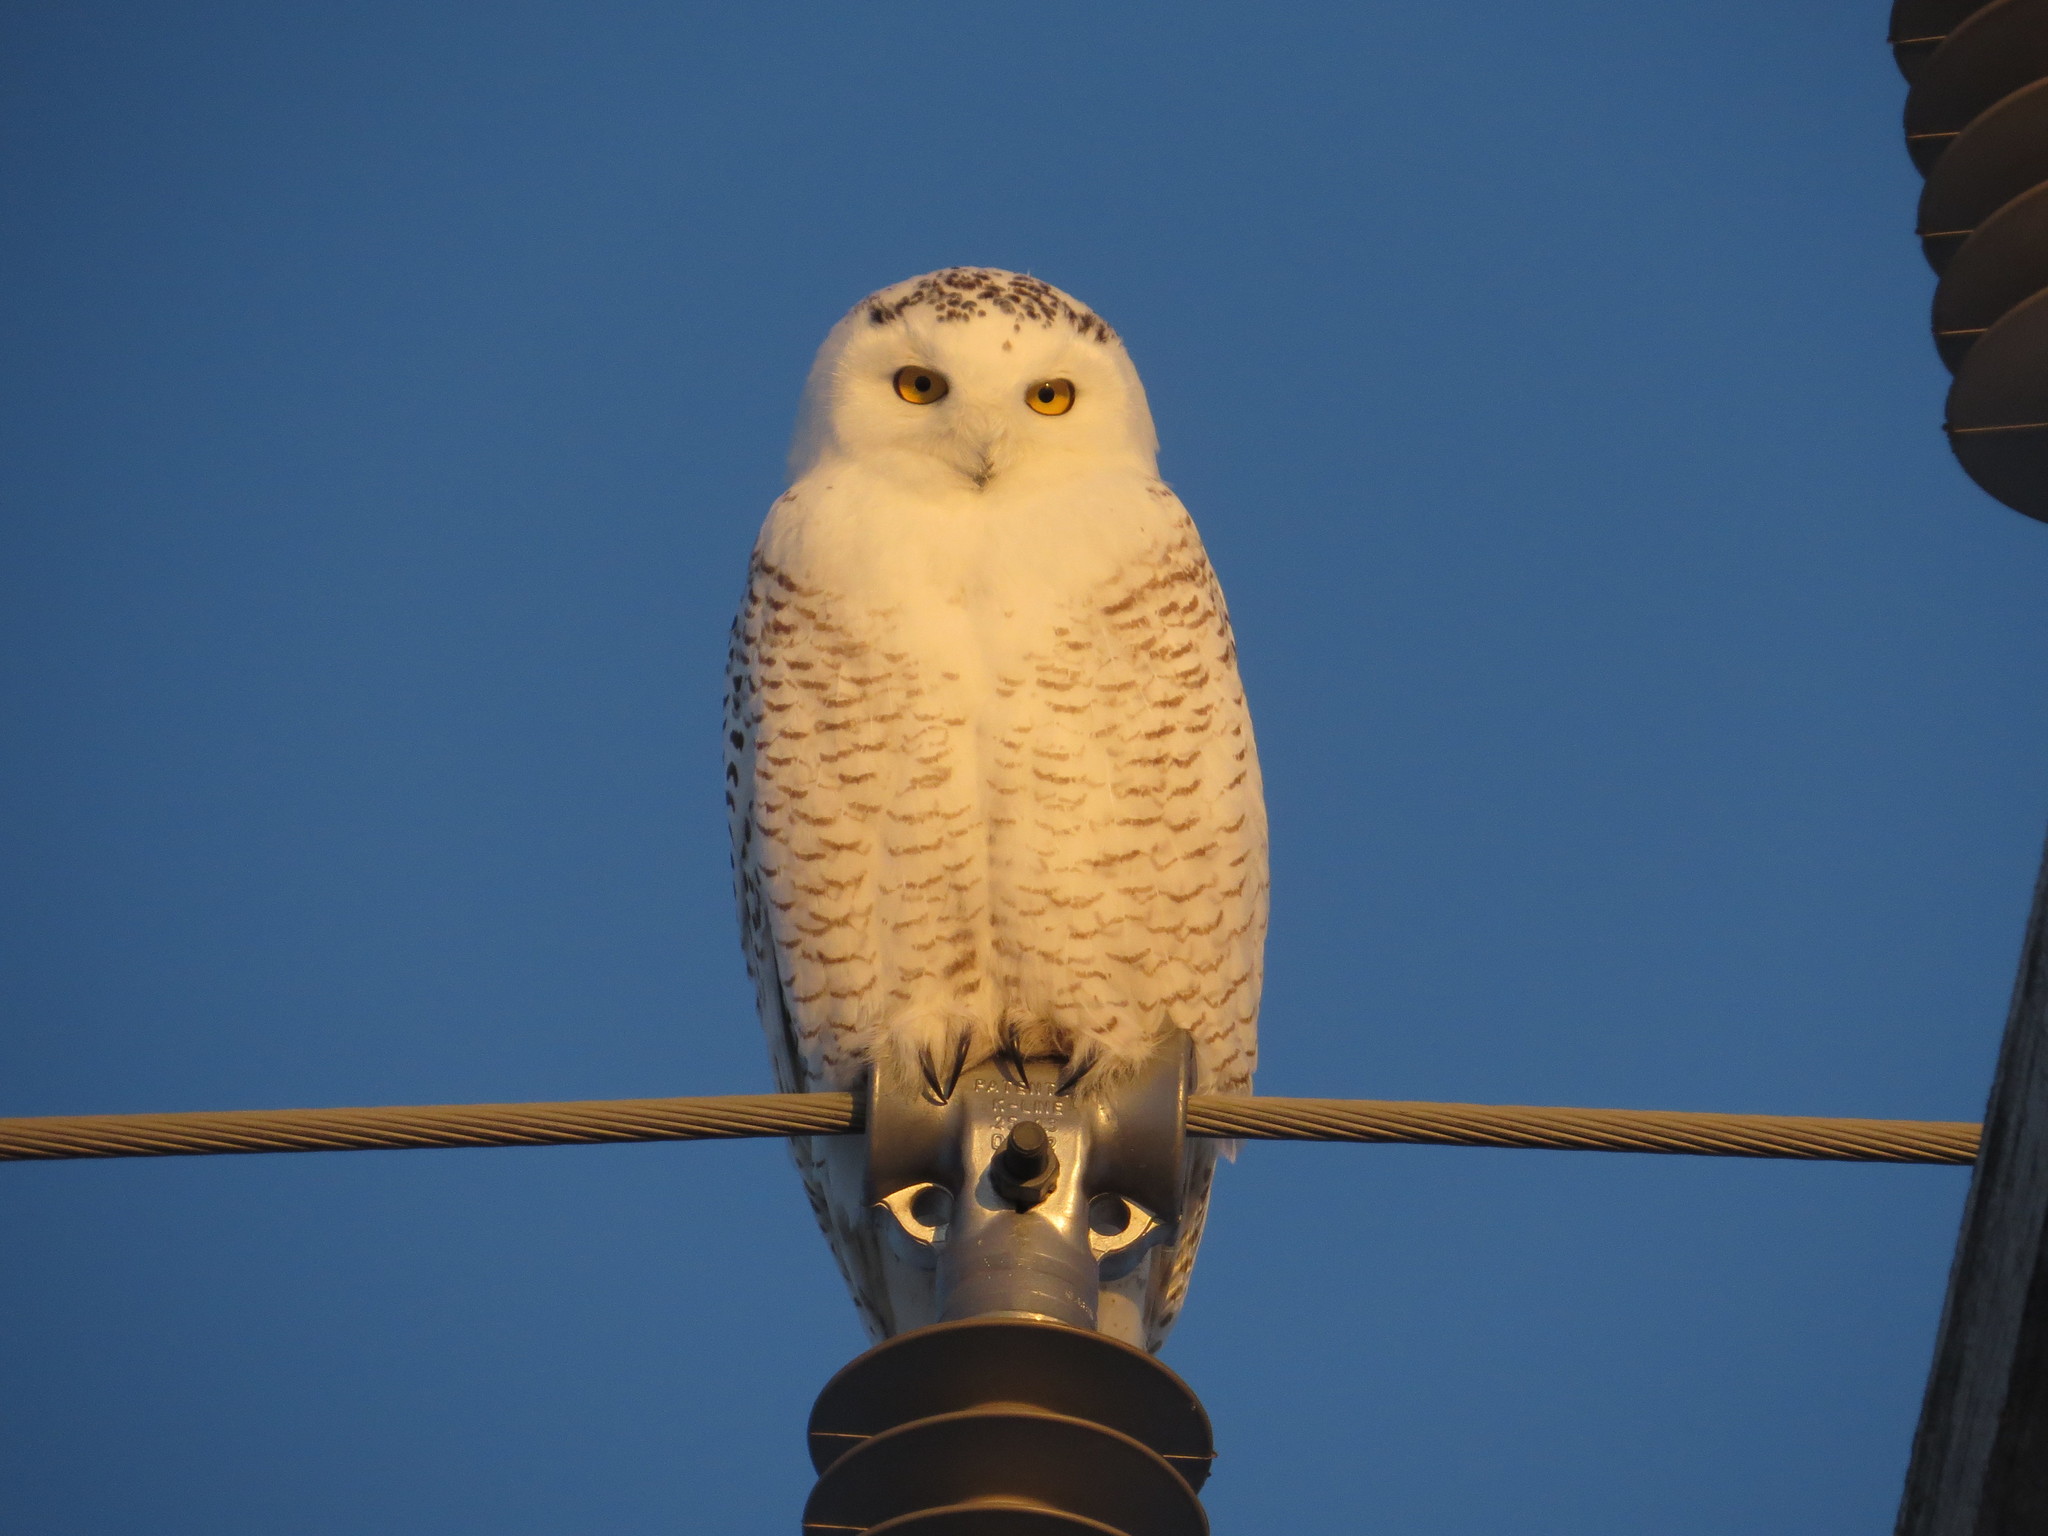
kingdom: Animalia
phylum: Chordata
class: Aves
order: Strigiformes
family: Strigidae
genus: Bubo
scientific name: Bubo scandiacus
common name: Snowy owl
